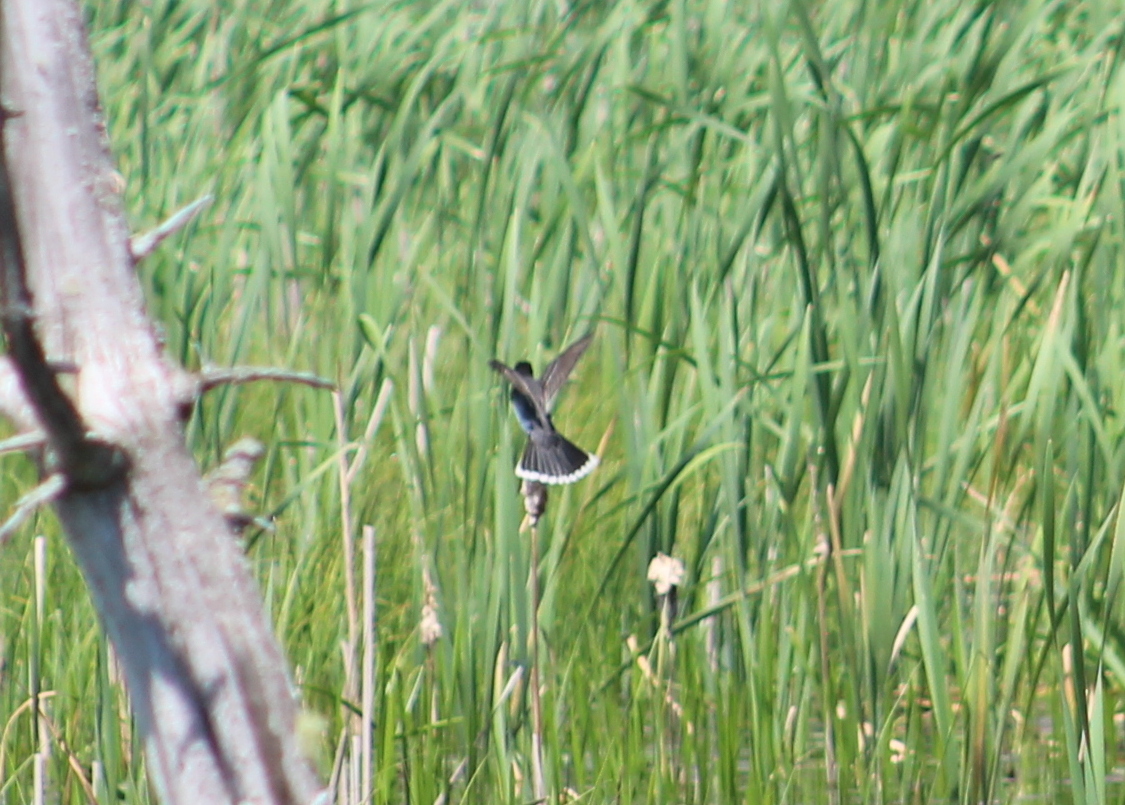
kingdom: Animalia
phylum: Chordata
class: Aves
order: Passeriformes
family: Tyrannidae
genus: Tyrannus
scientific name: Tyrannus tyrannus
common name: Eastern kingbird
